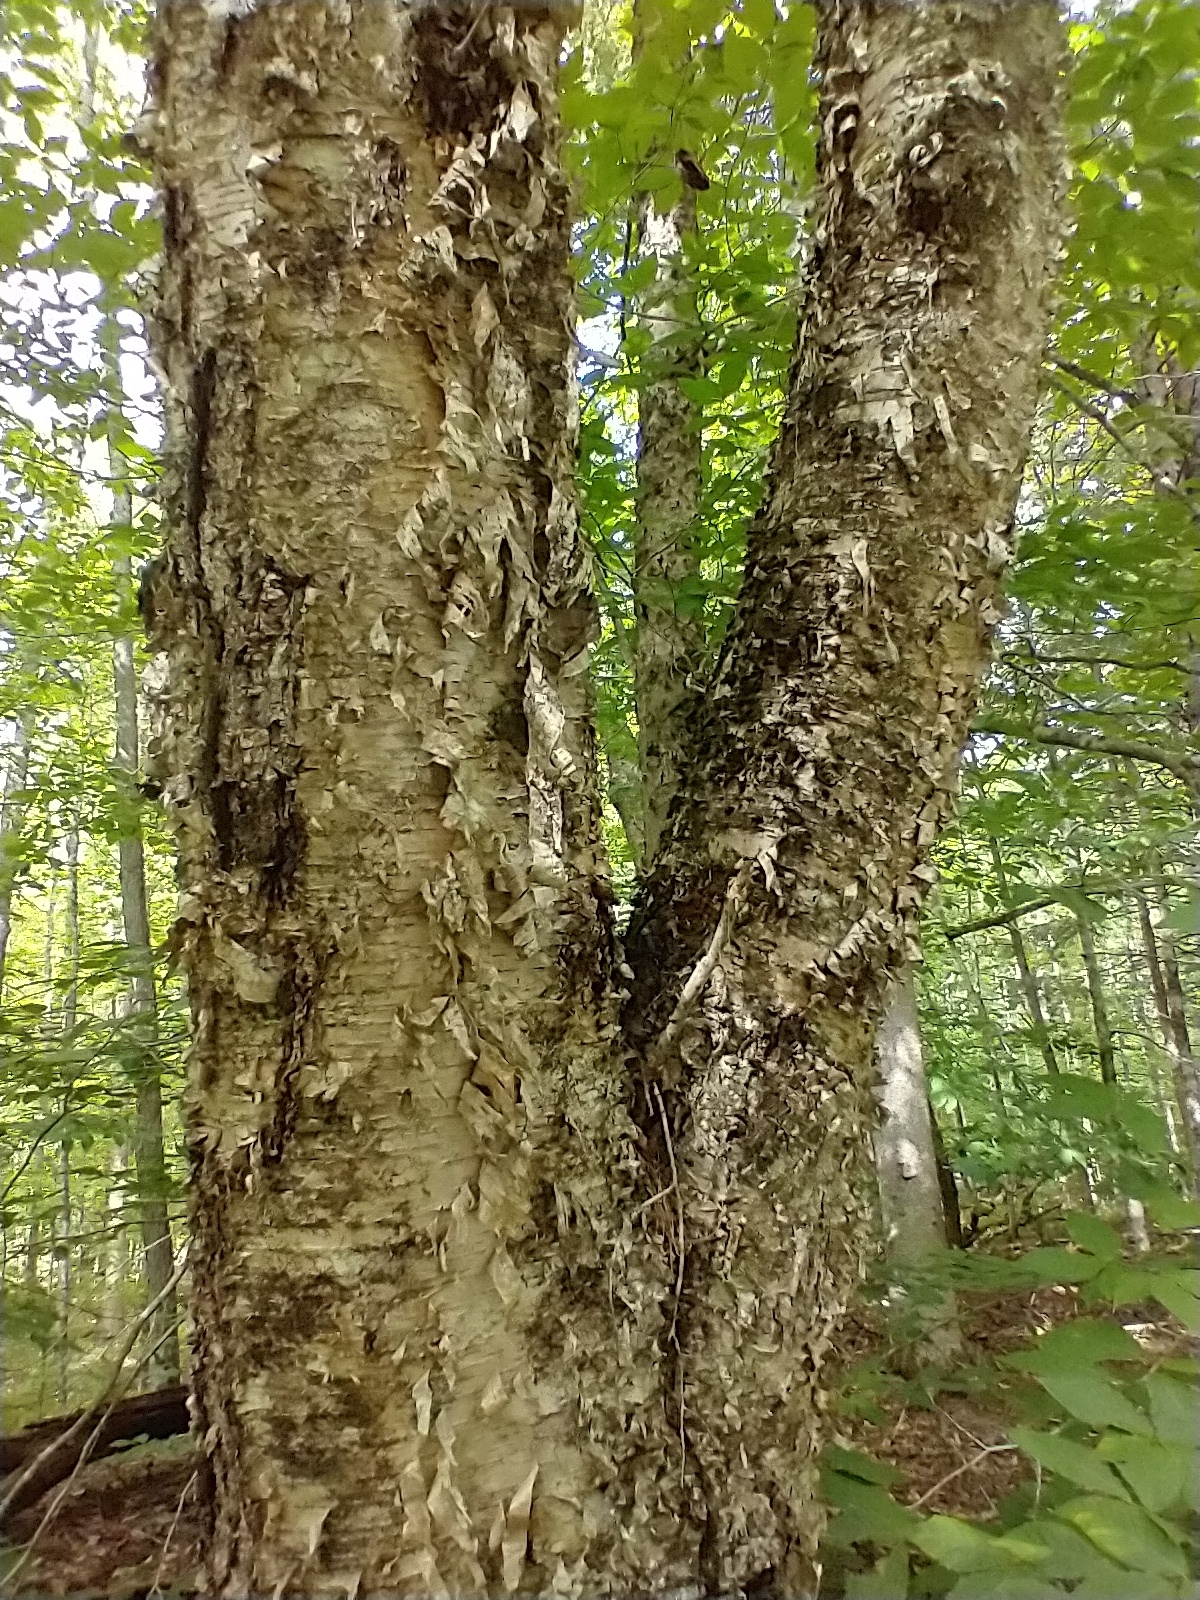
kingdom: Plantae
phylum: Tracheophyta
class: Magnoliopsida
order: Fagales
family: Betulaceae
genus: Betula
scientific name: Betula alleghaniensis
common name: Yellow birch
